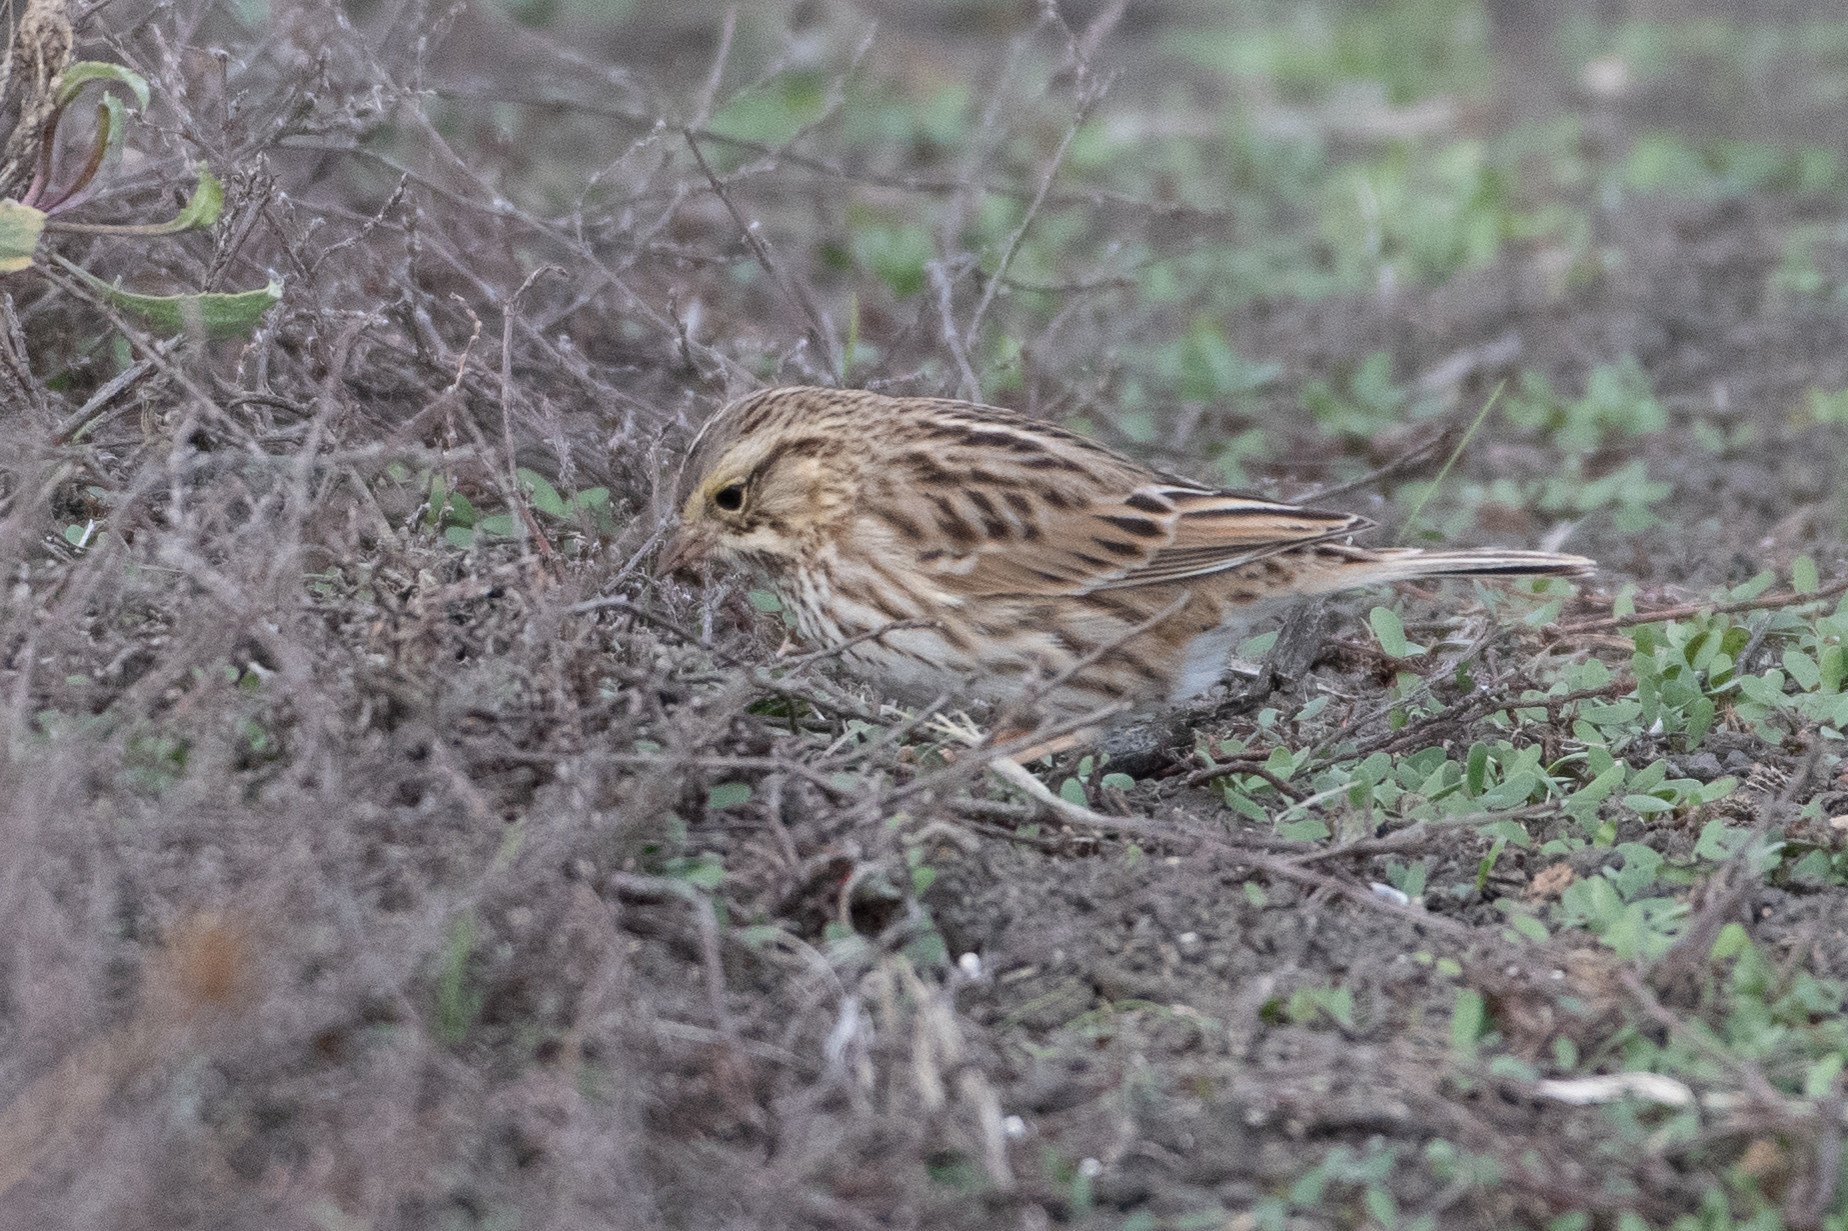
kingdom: Animalia
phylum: Chordata
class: Aves
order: Passeriformes
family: Passerellidae
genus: Passerculus
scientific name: Passerculus sandwichensis
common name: Savannah sparrow
